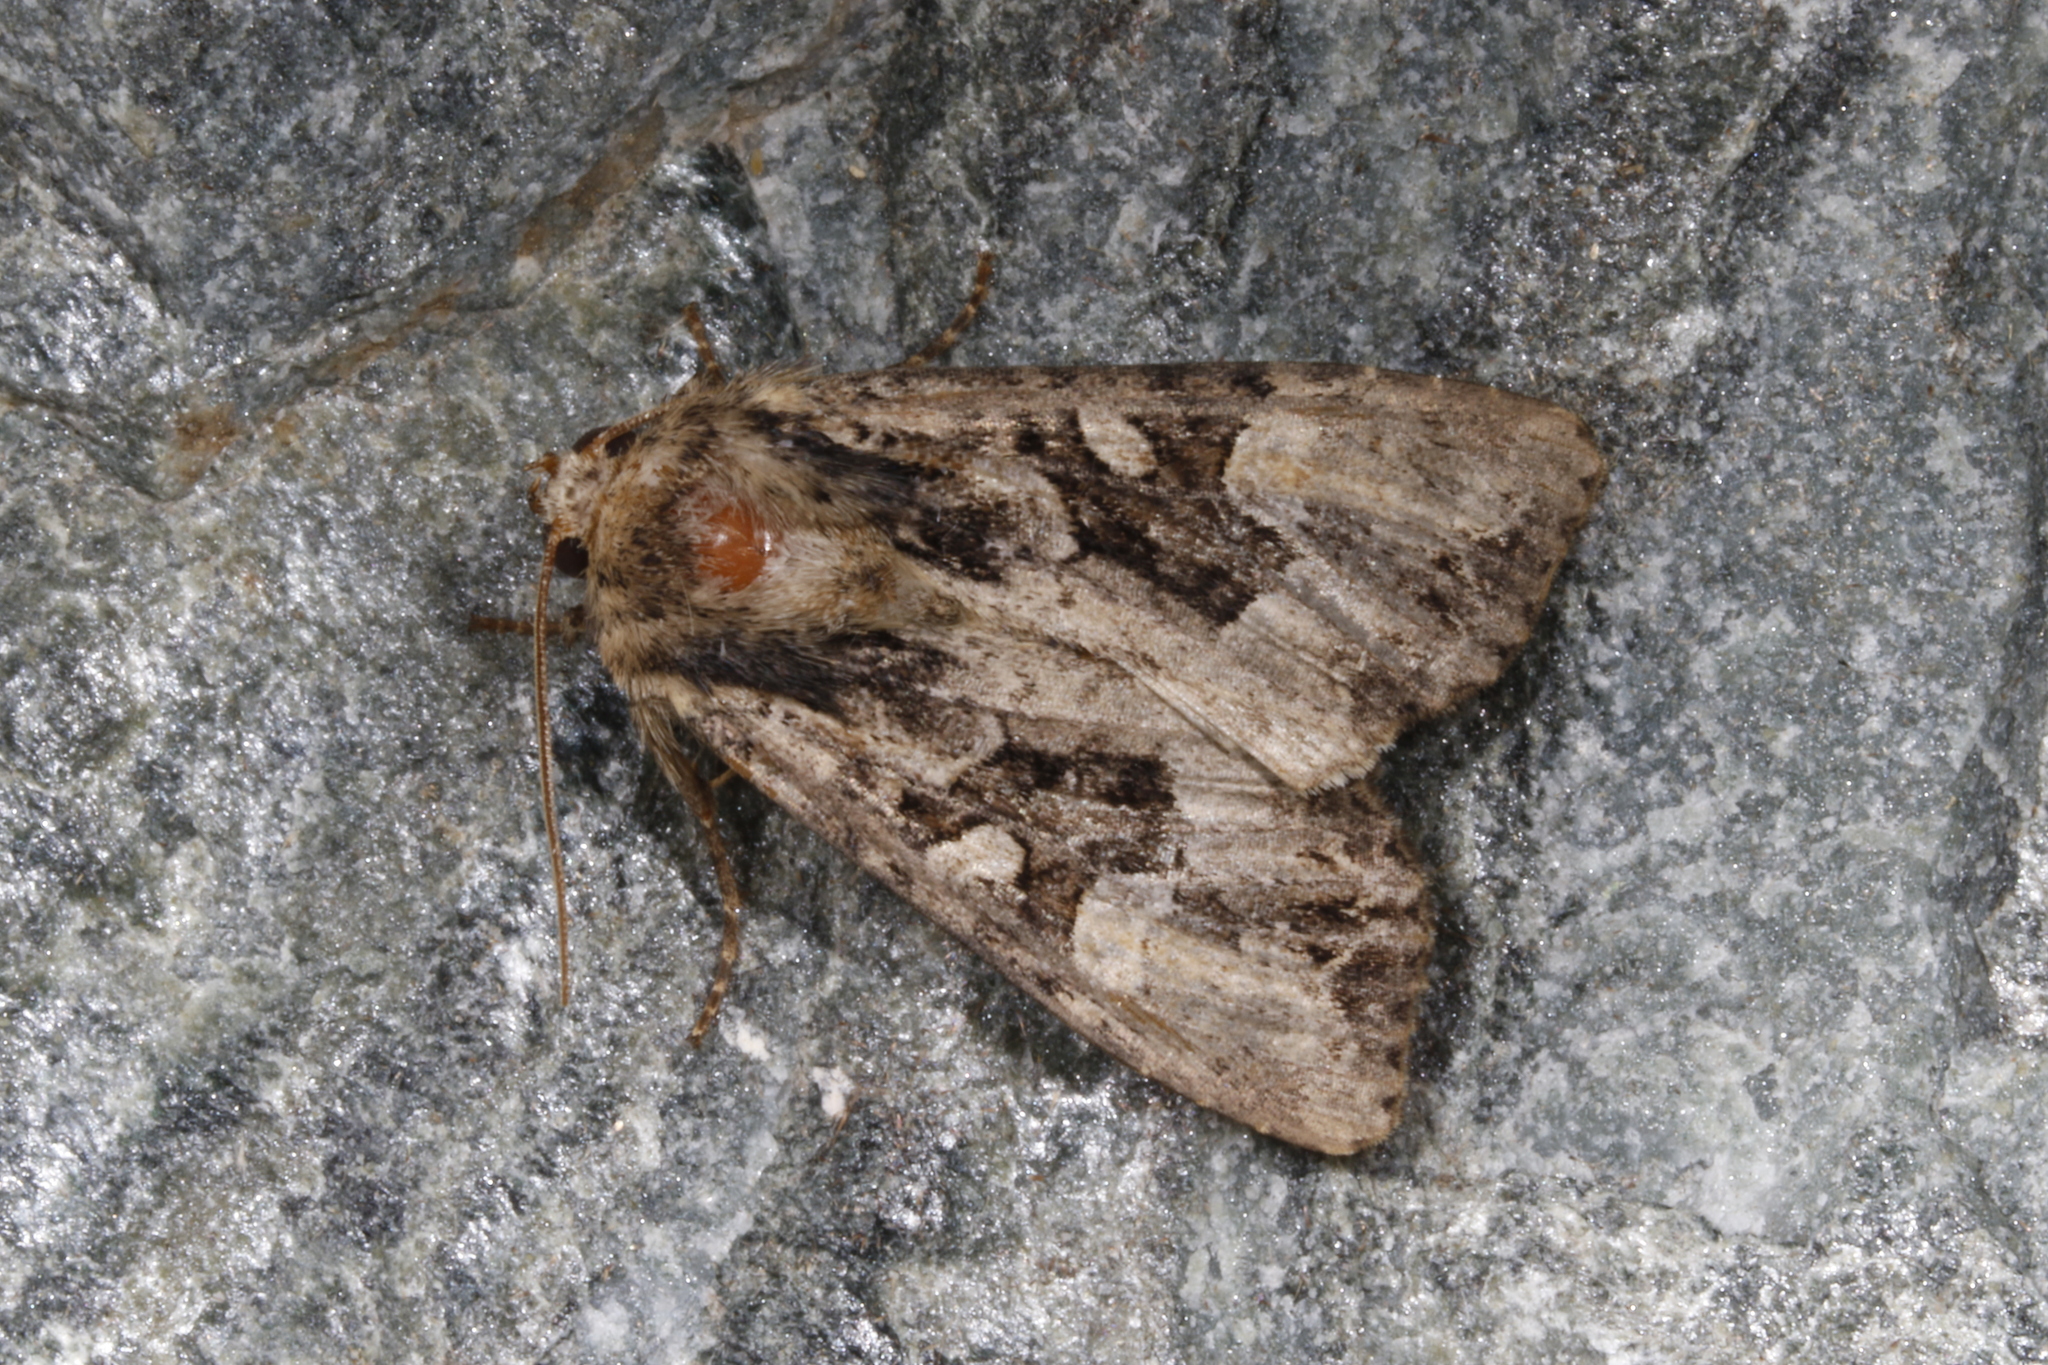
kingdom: Animalia
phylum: Arthropoda
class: Insecta
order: Lepidoptera
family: Noctuidae
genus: Apamea
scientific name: Apamea remissa
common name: Dusky brocade
